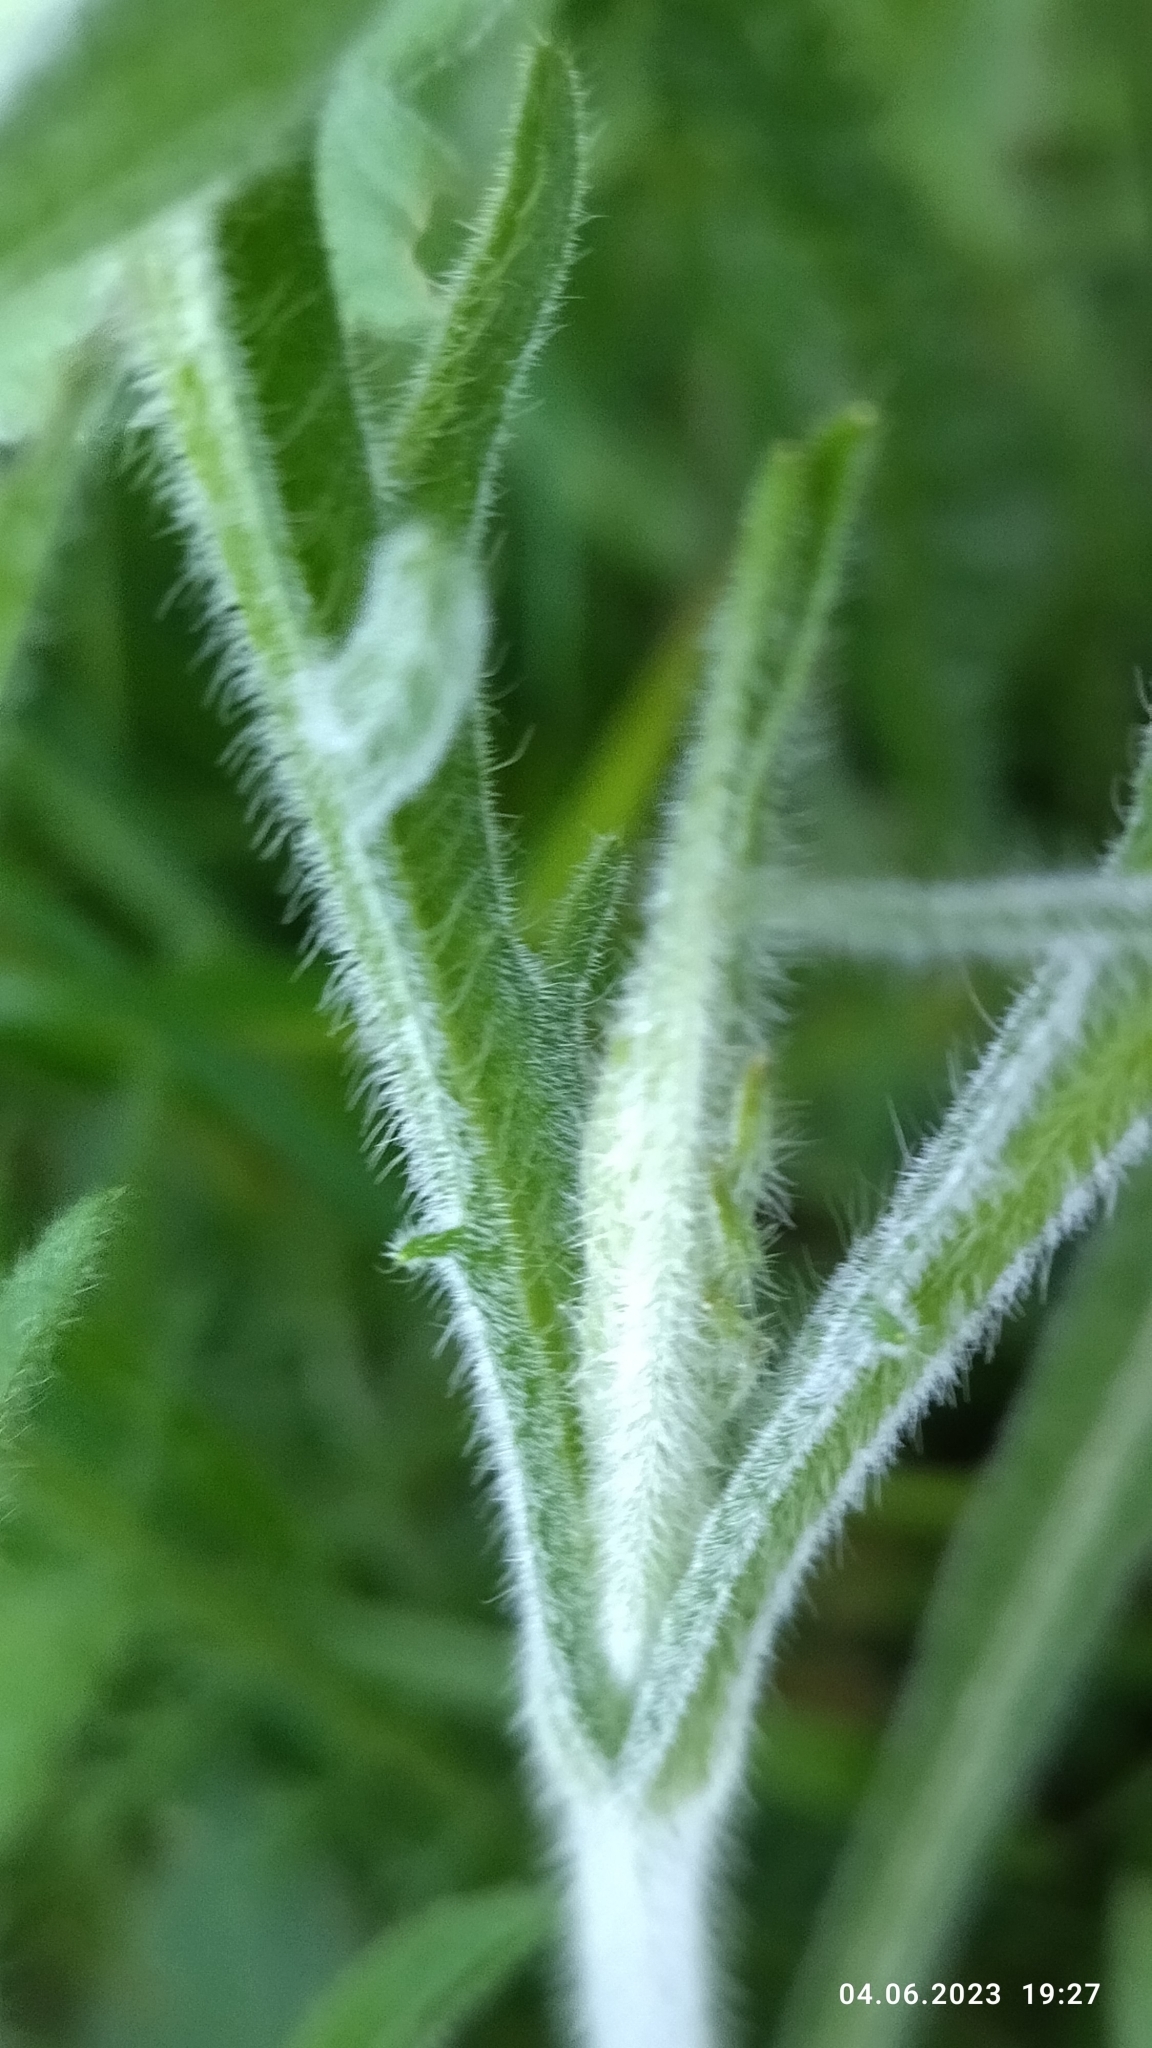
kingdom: Plantae
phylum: Tracheophyta
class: Magnoliopsida
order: Dipsacales
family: Caprifoliaceae
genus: Knautia
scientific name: Knautia arvensis
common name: Field scabiosa
